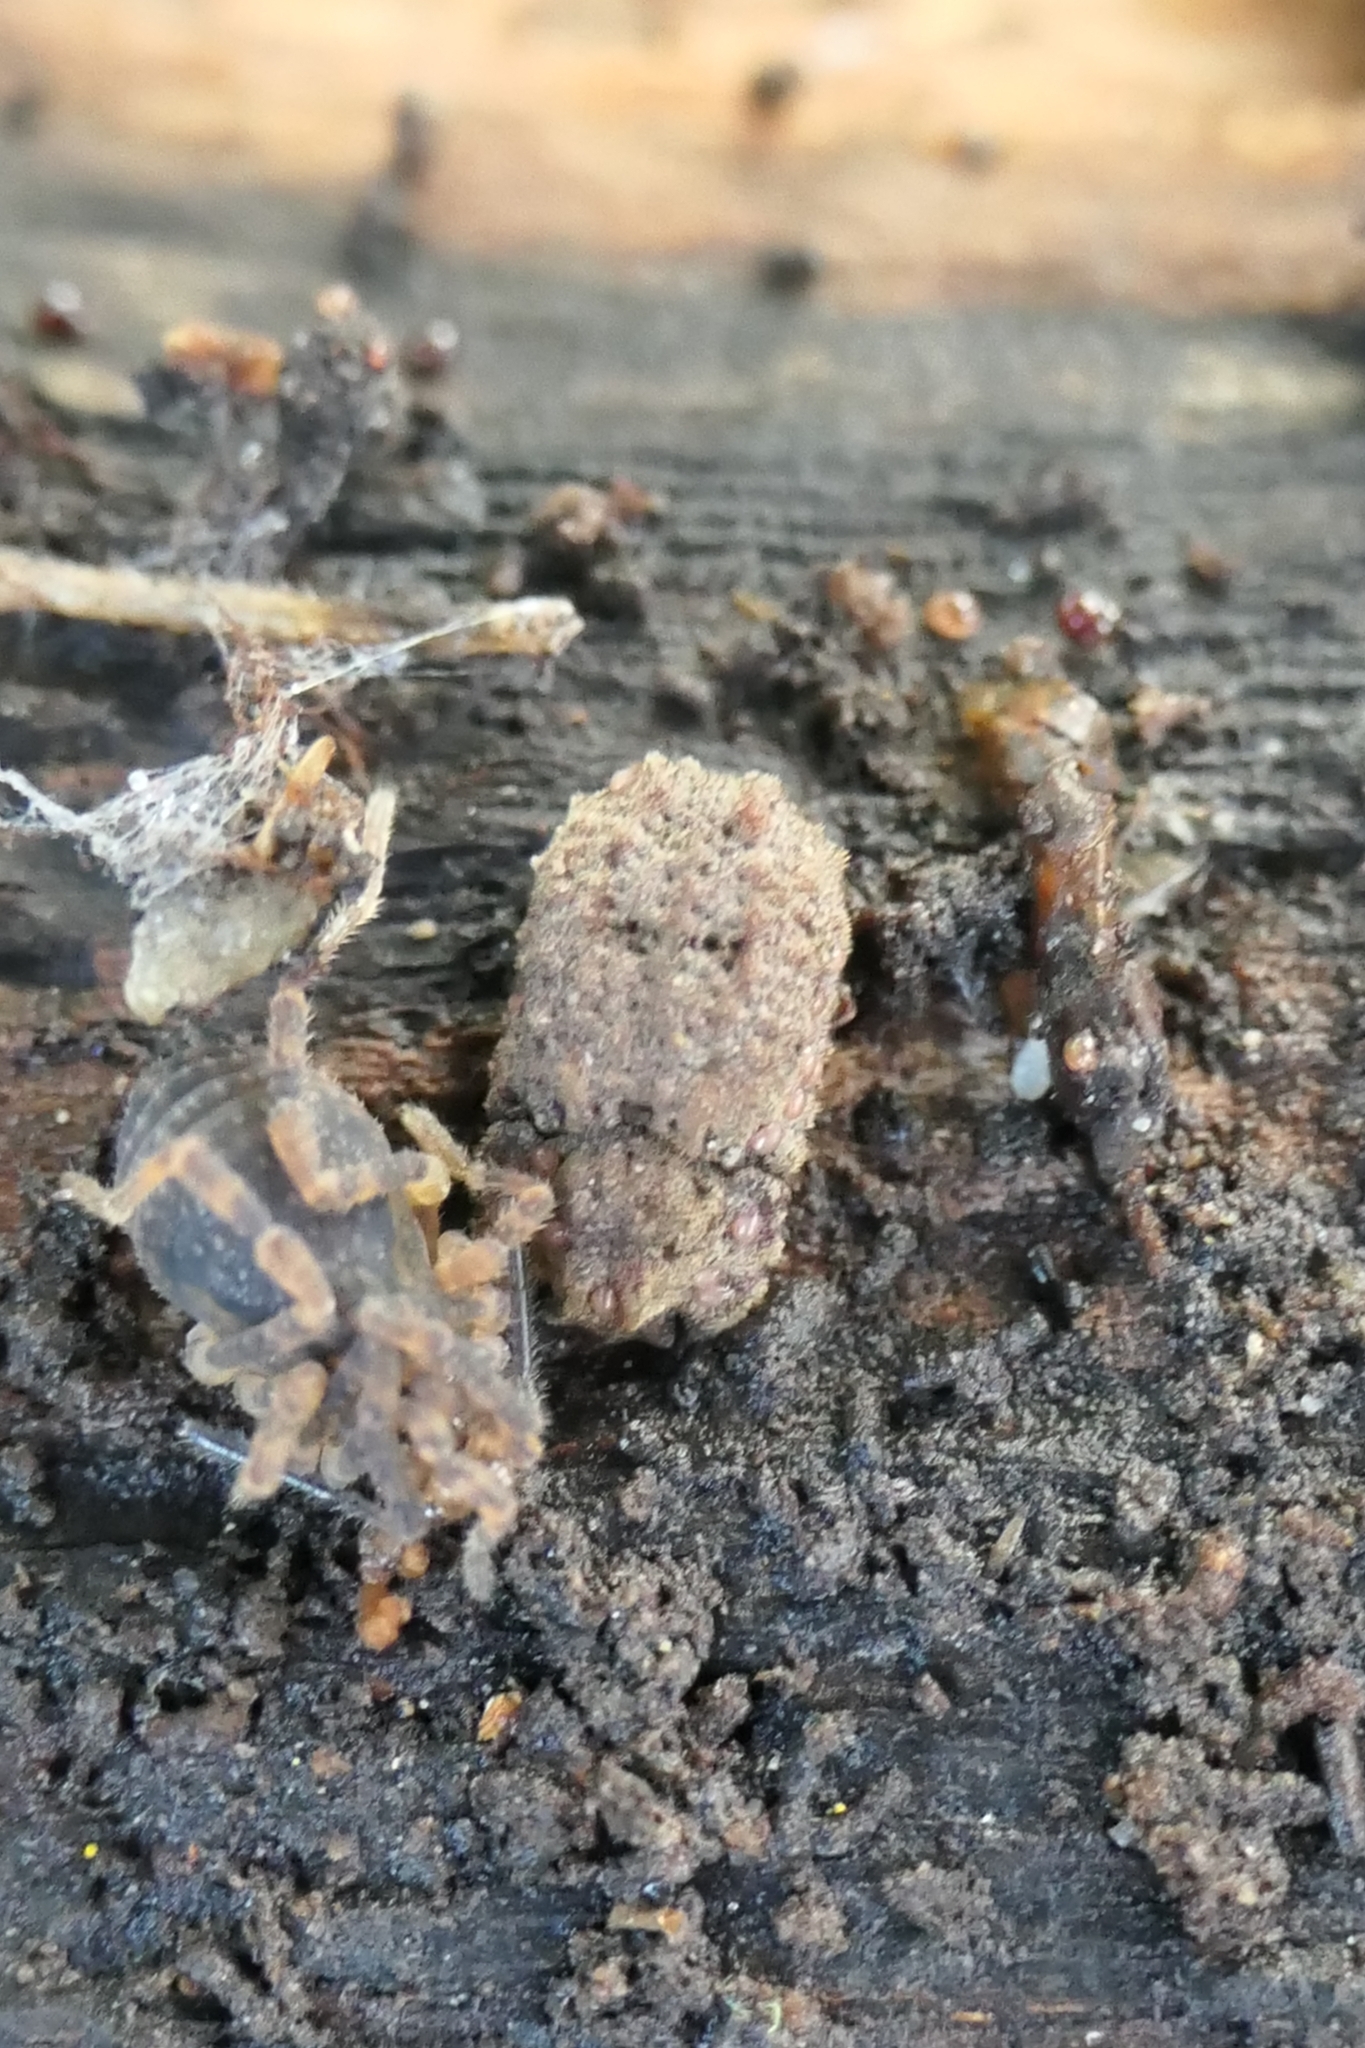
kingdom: Animalia
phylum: Arthropoda
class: Insecta
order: Coleoptera
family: Zopheridae
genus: Pristoderus
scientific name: Pristoderus
